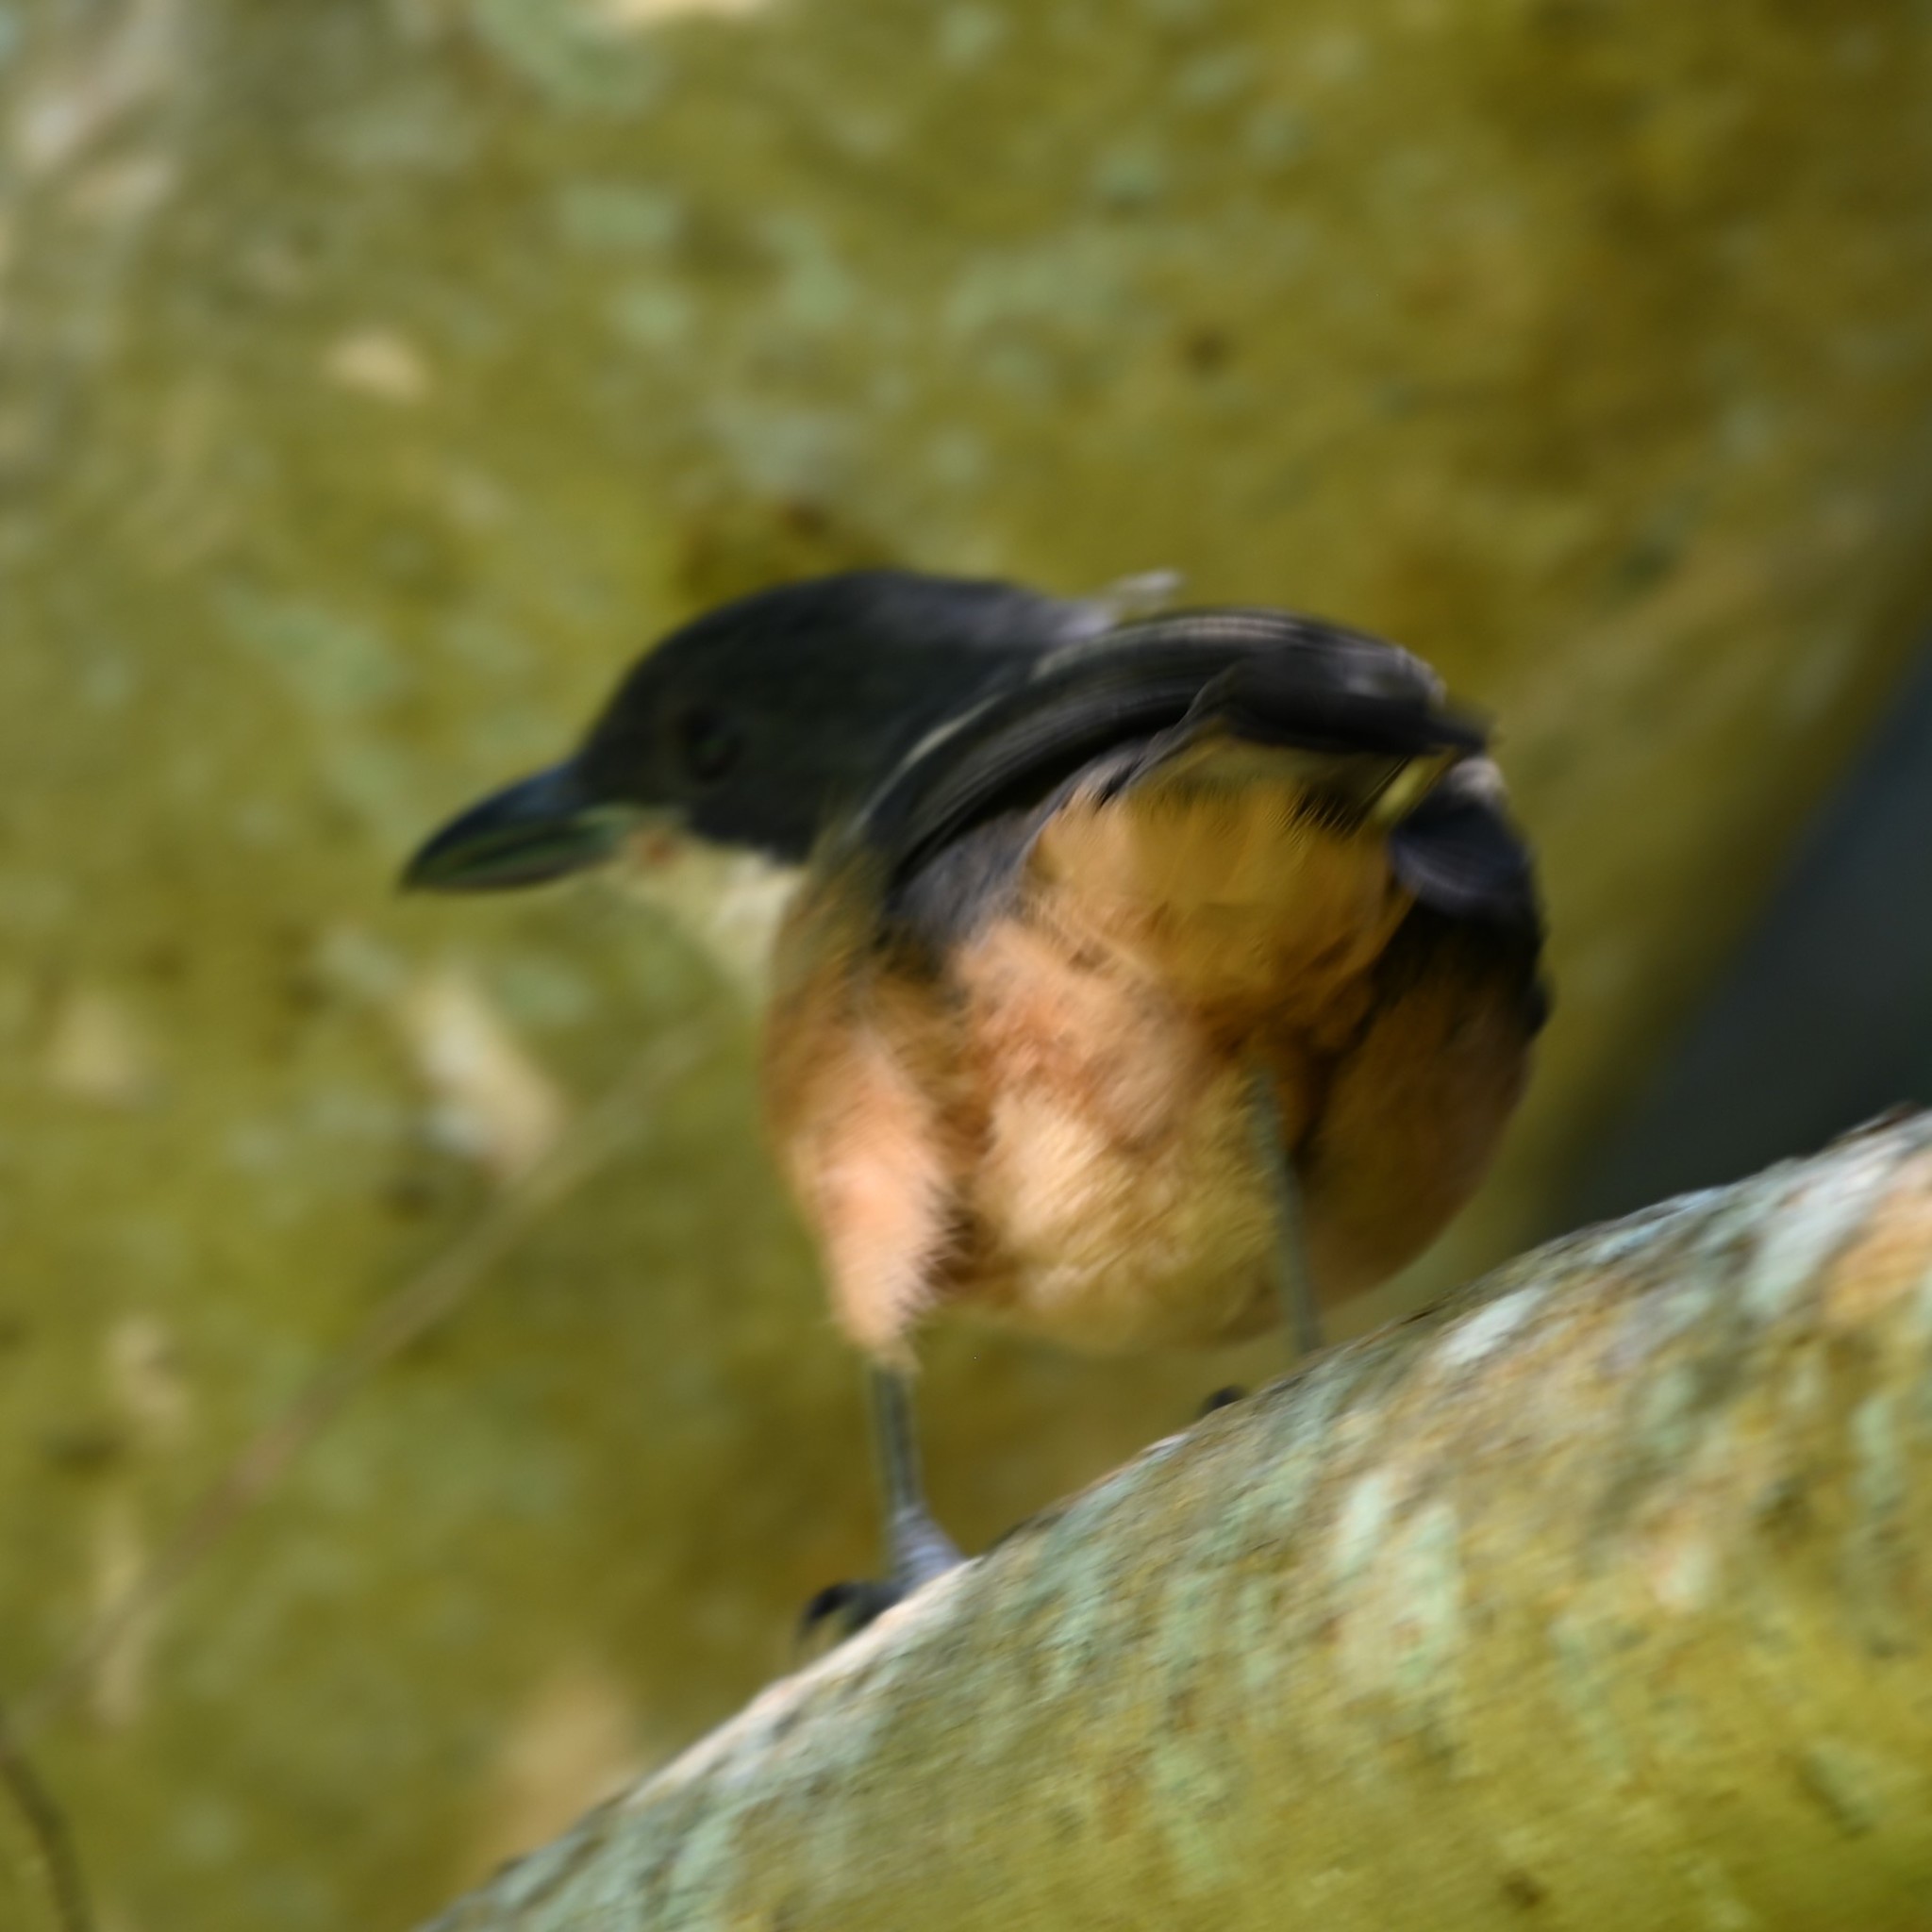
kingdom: Animalia
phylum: Chordata
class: Aves
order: Passeriformes
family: Malaconotidae
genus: Laniarius
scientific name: Laniarius ferrugineus
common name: Southern boubou
